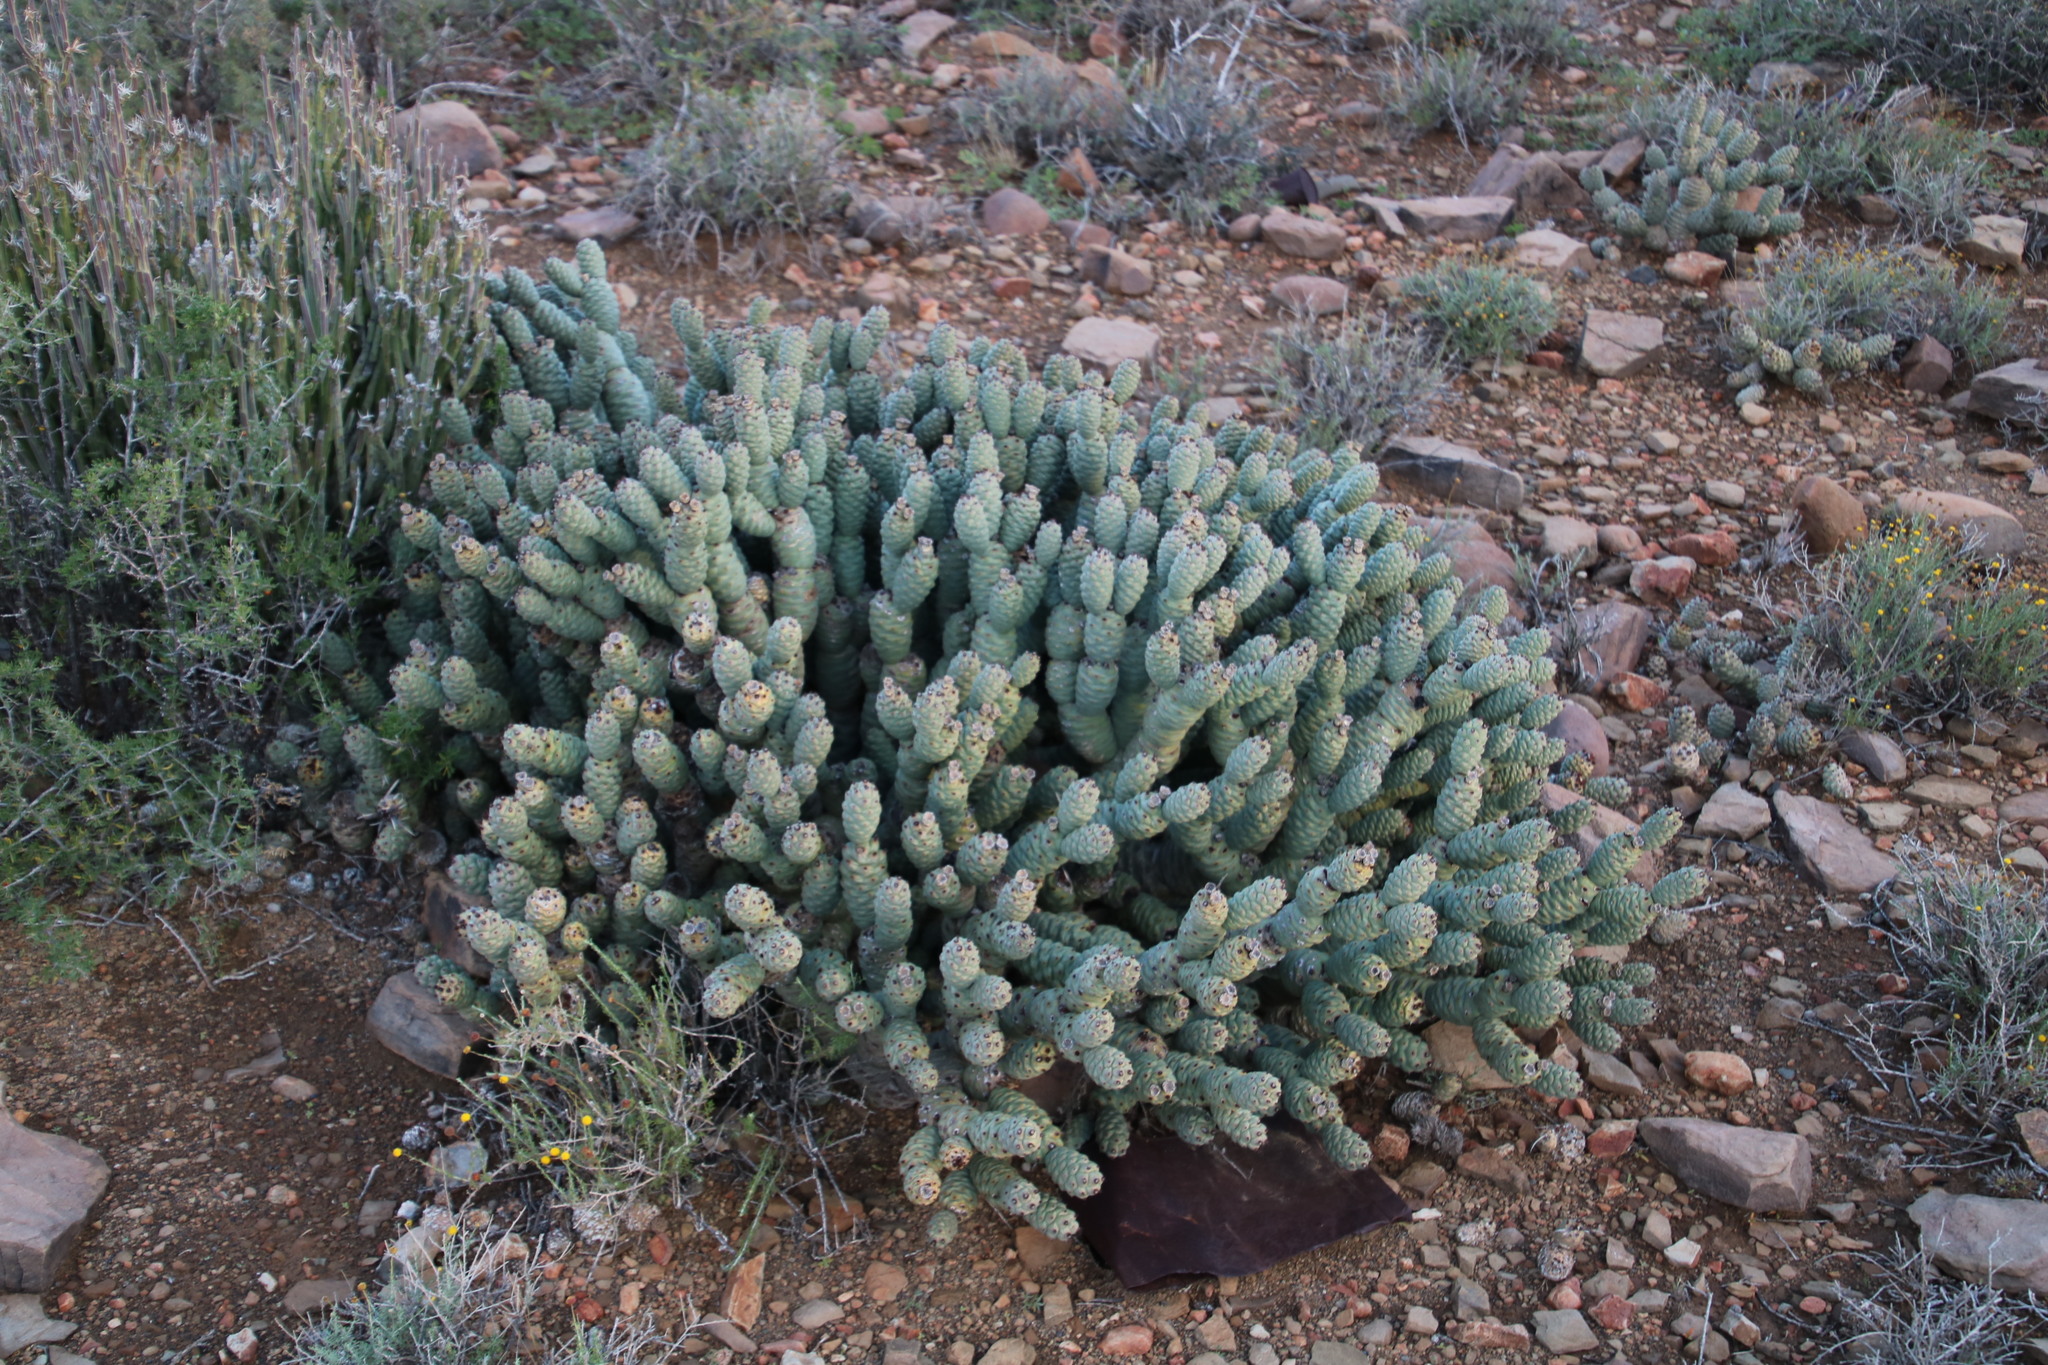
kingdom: Plantae
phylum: Tracheophyta
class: Magnoliopsida
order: Caryophyllales
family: Cactaceae
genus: Tephrocactus
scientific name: Tephrocactus articulatus
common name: Paper cactus
